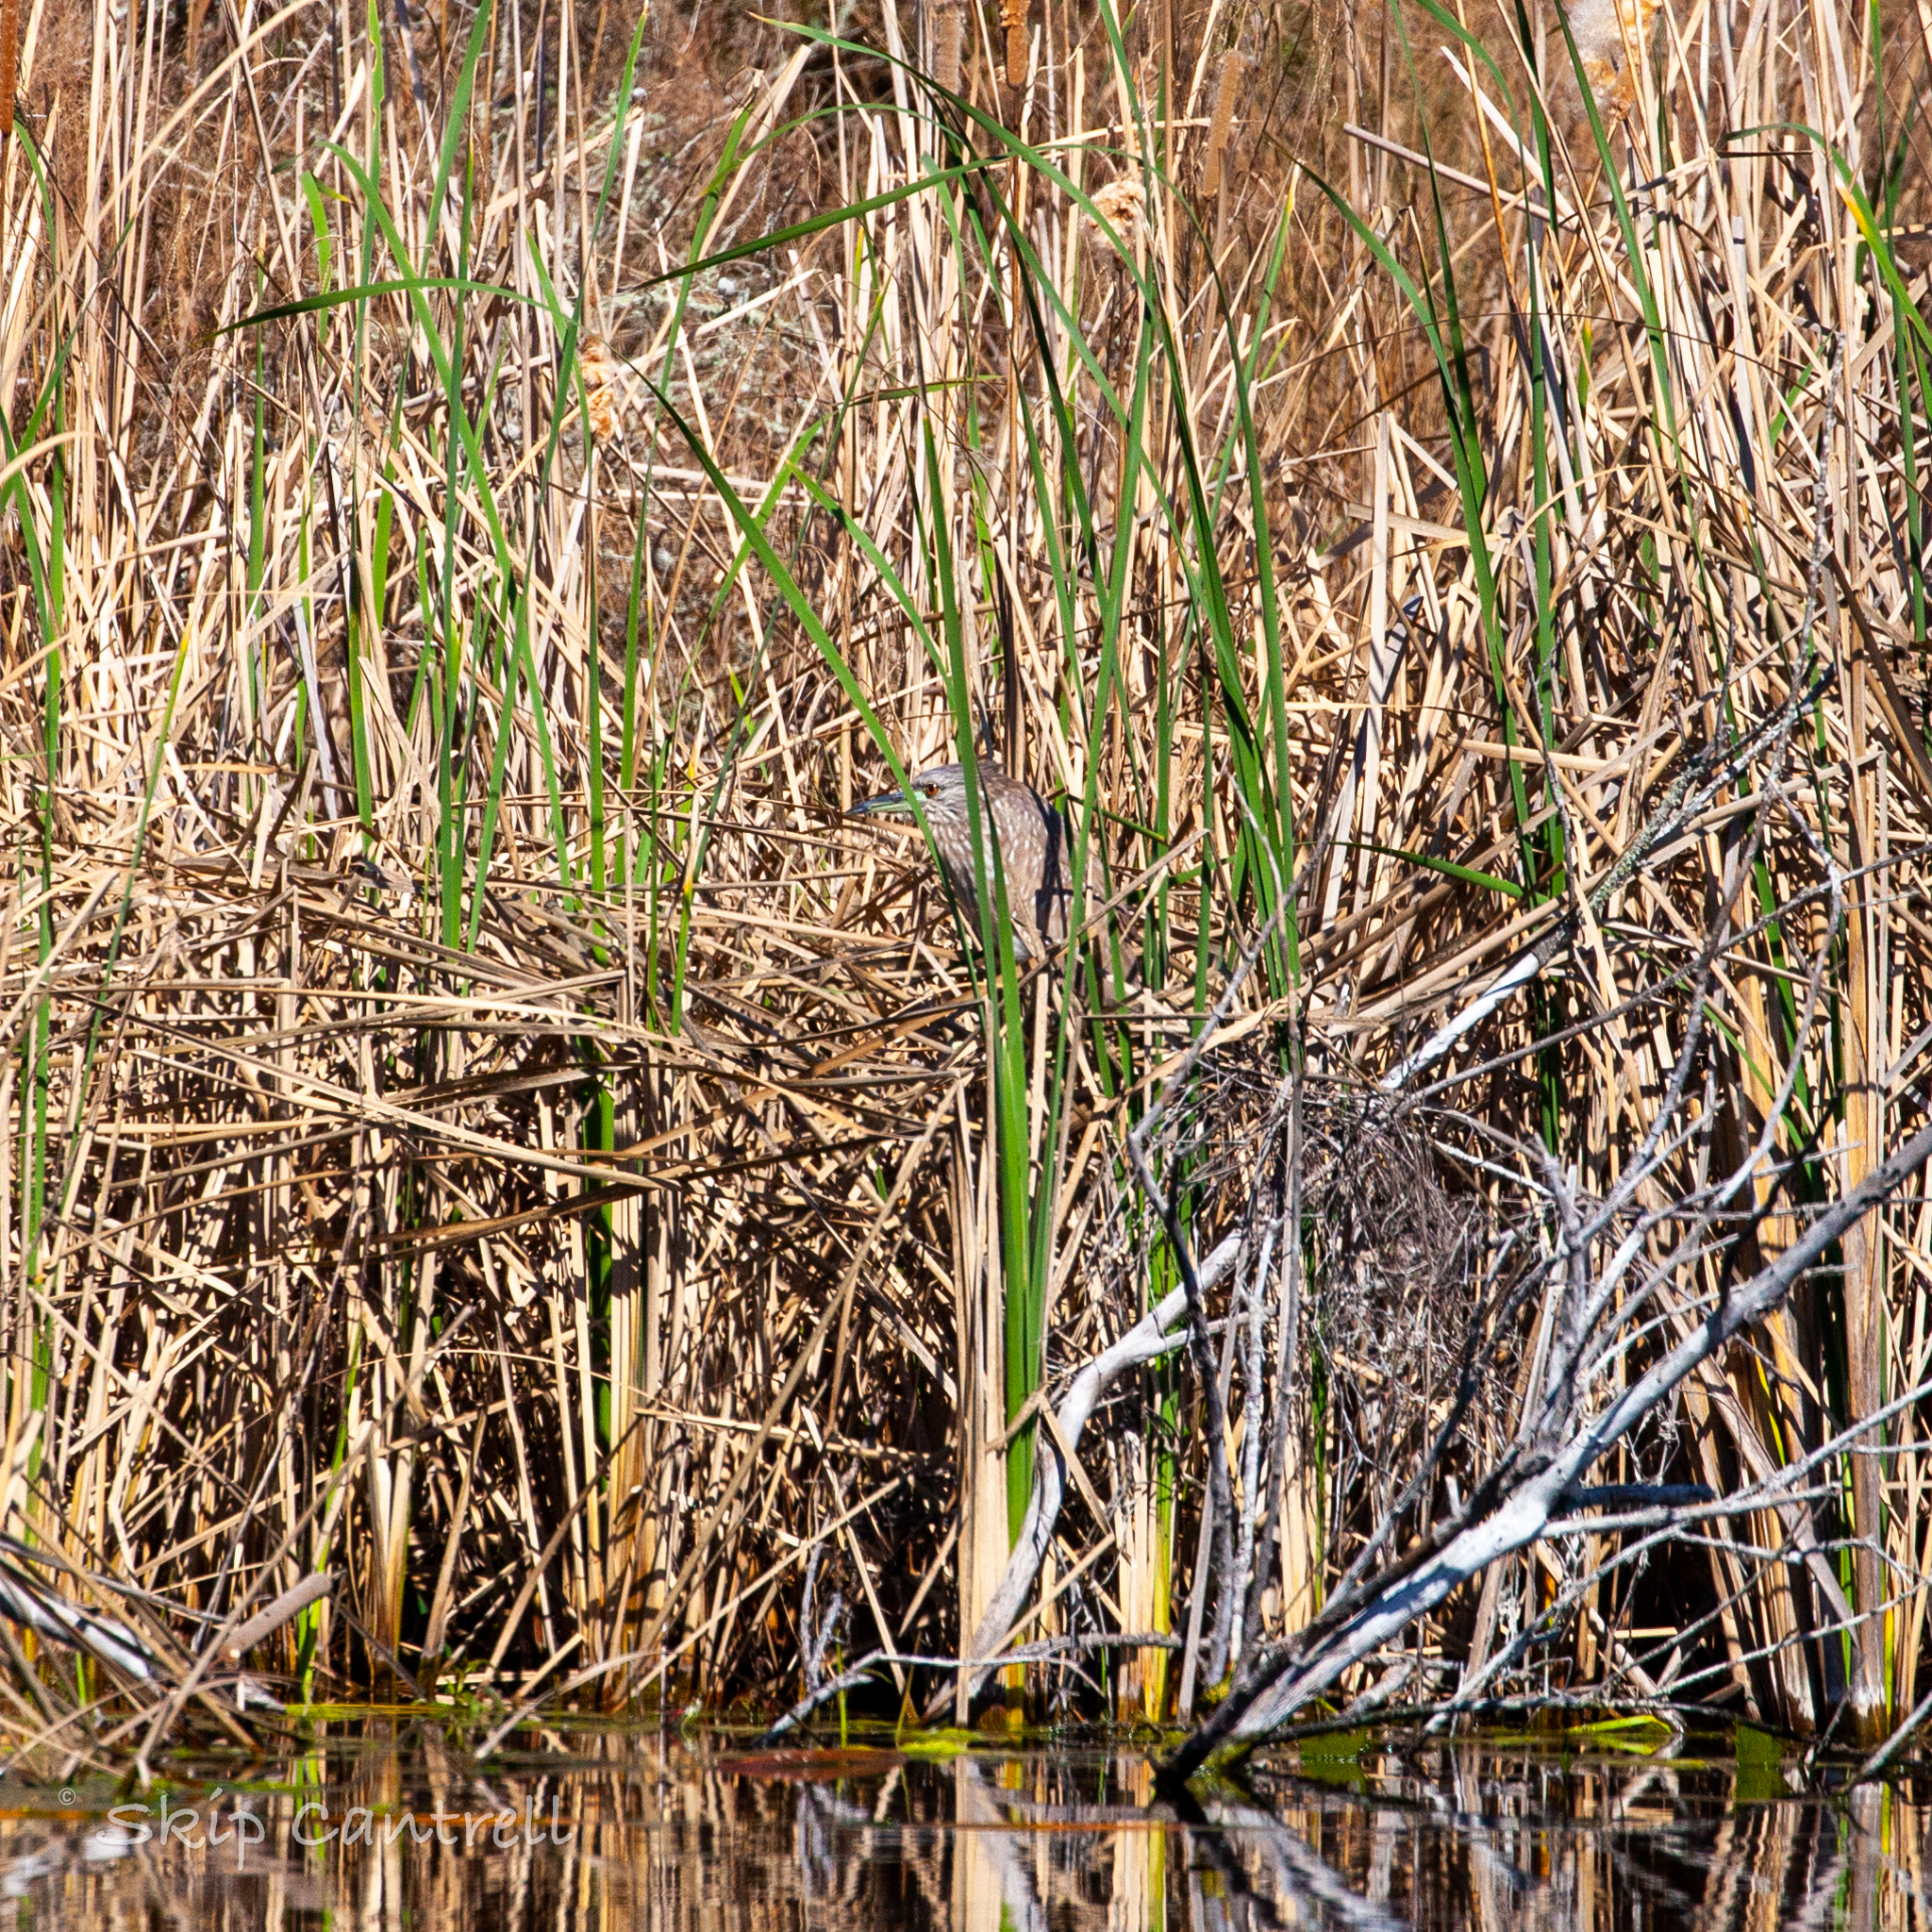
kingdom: Animalia
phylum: Chordata
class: Aves
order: Pelecaniformes
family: Ardeidae
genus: Nycticorax
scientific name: Nycticorax nycticorax
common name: Black-crowned night heron
